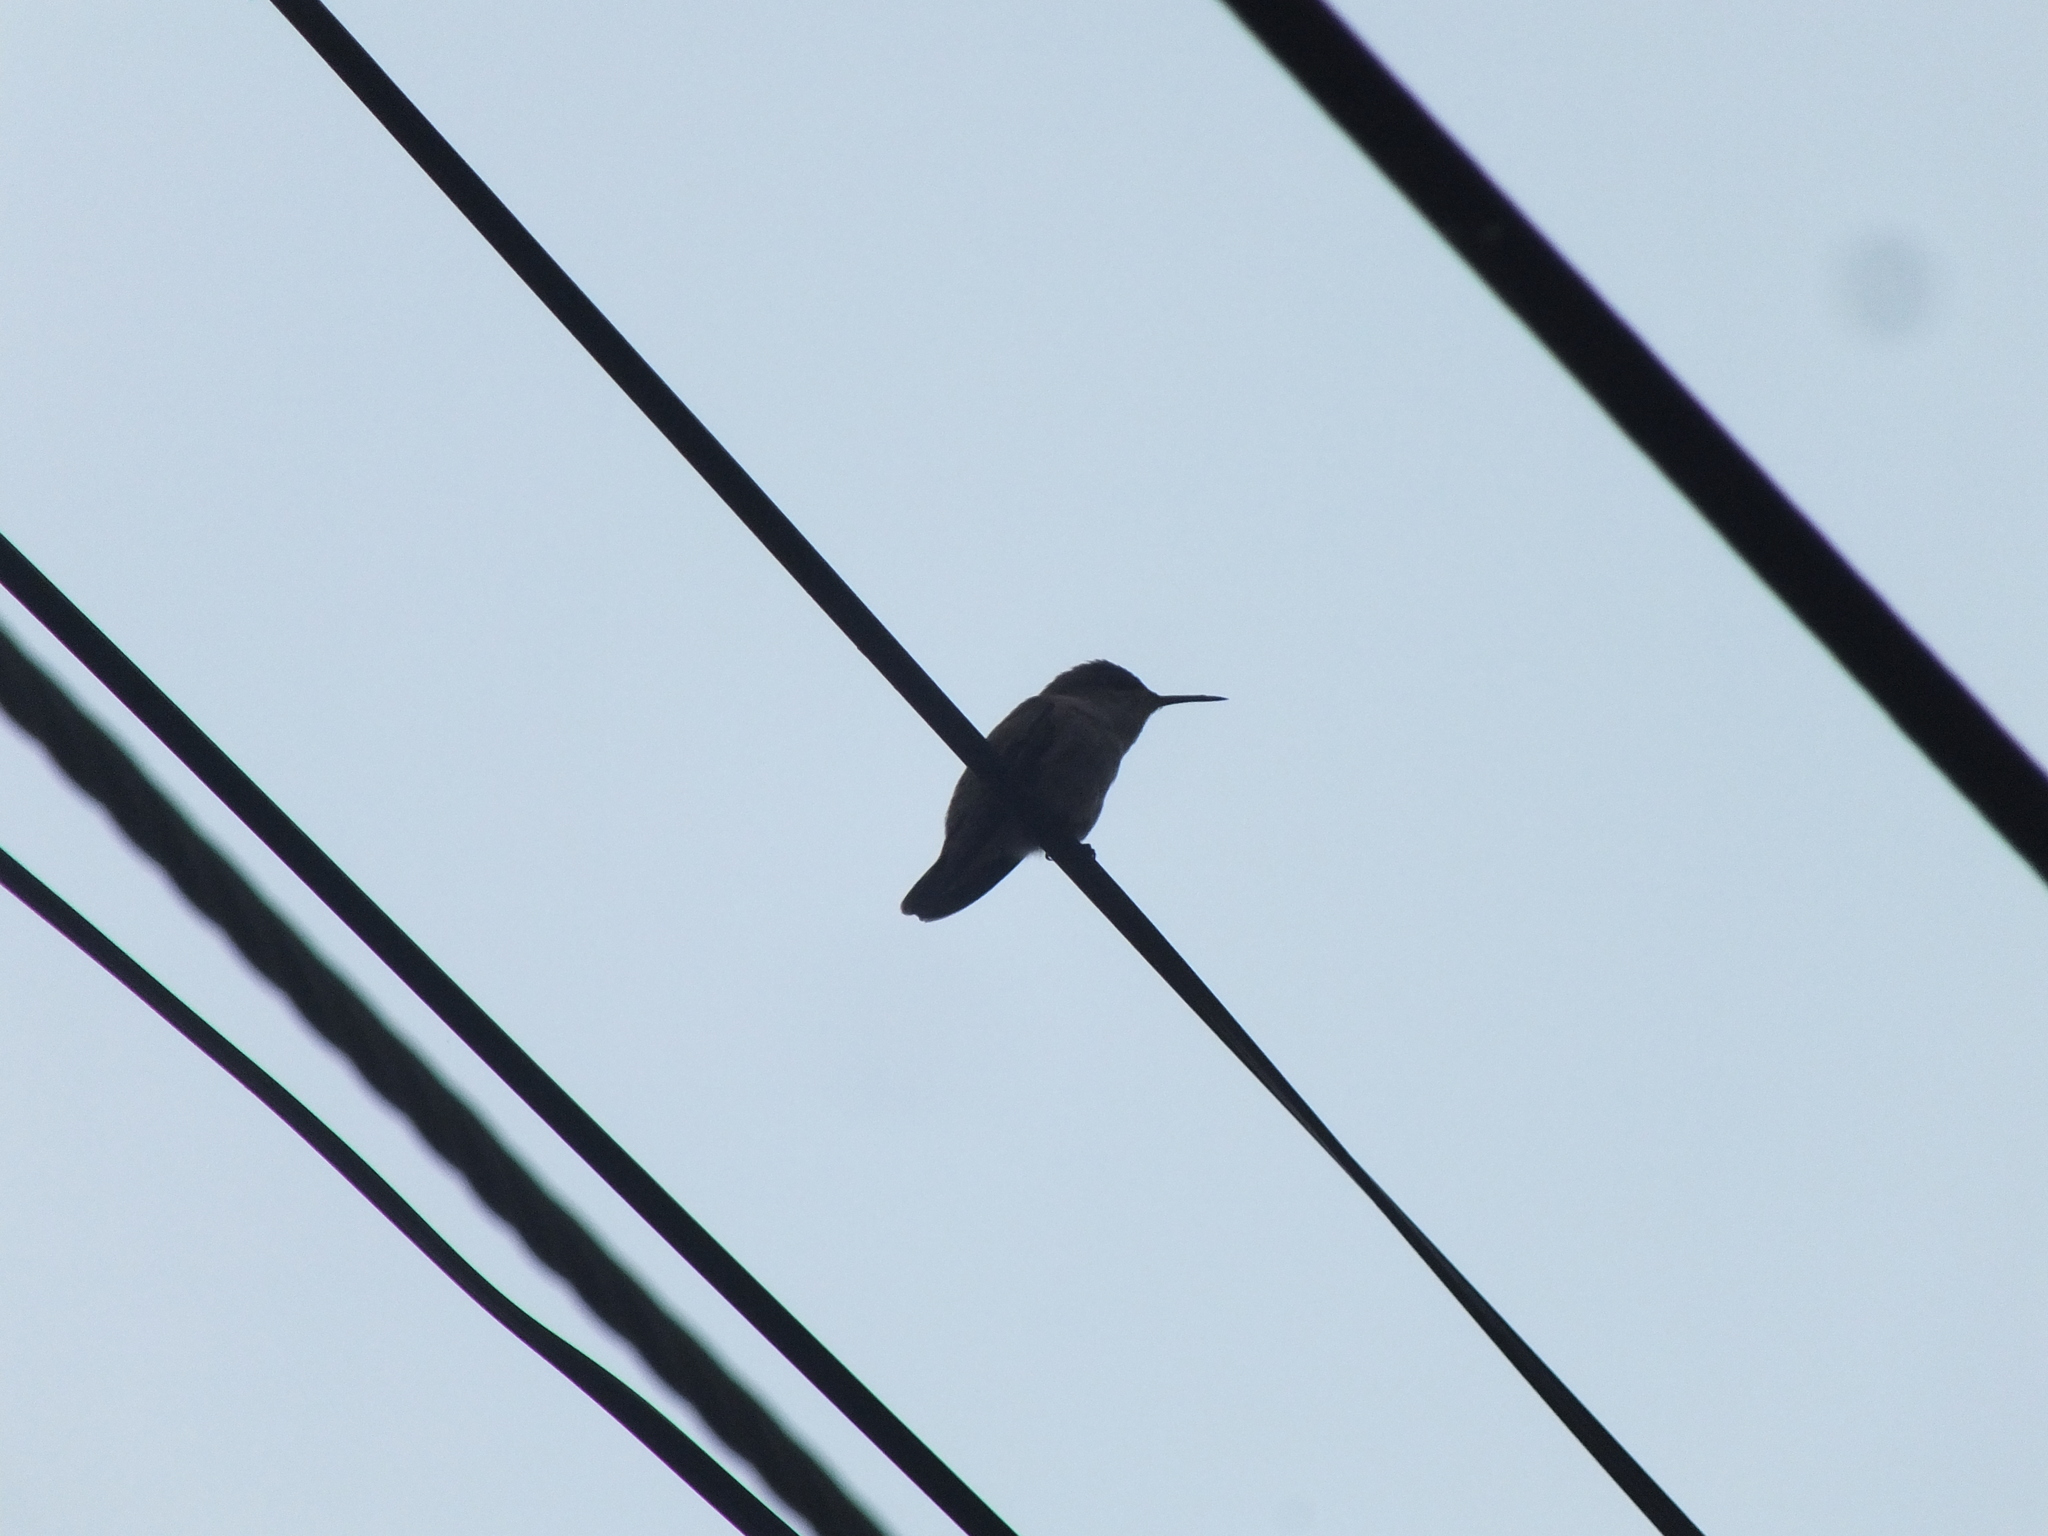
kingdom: Animalia
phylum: Chordata
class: Aves
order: Apodiformes
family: Trochilidae
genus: Mellisuga
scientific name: Mellisuga minima
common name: Vervain hummingbird
